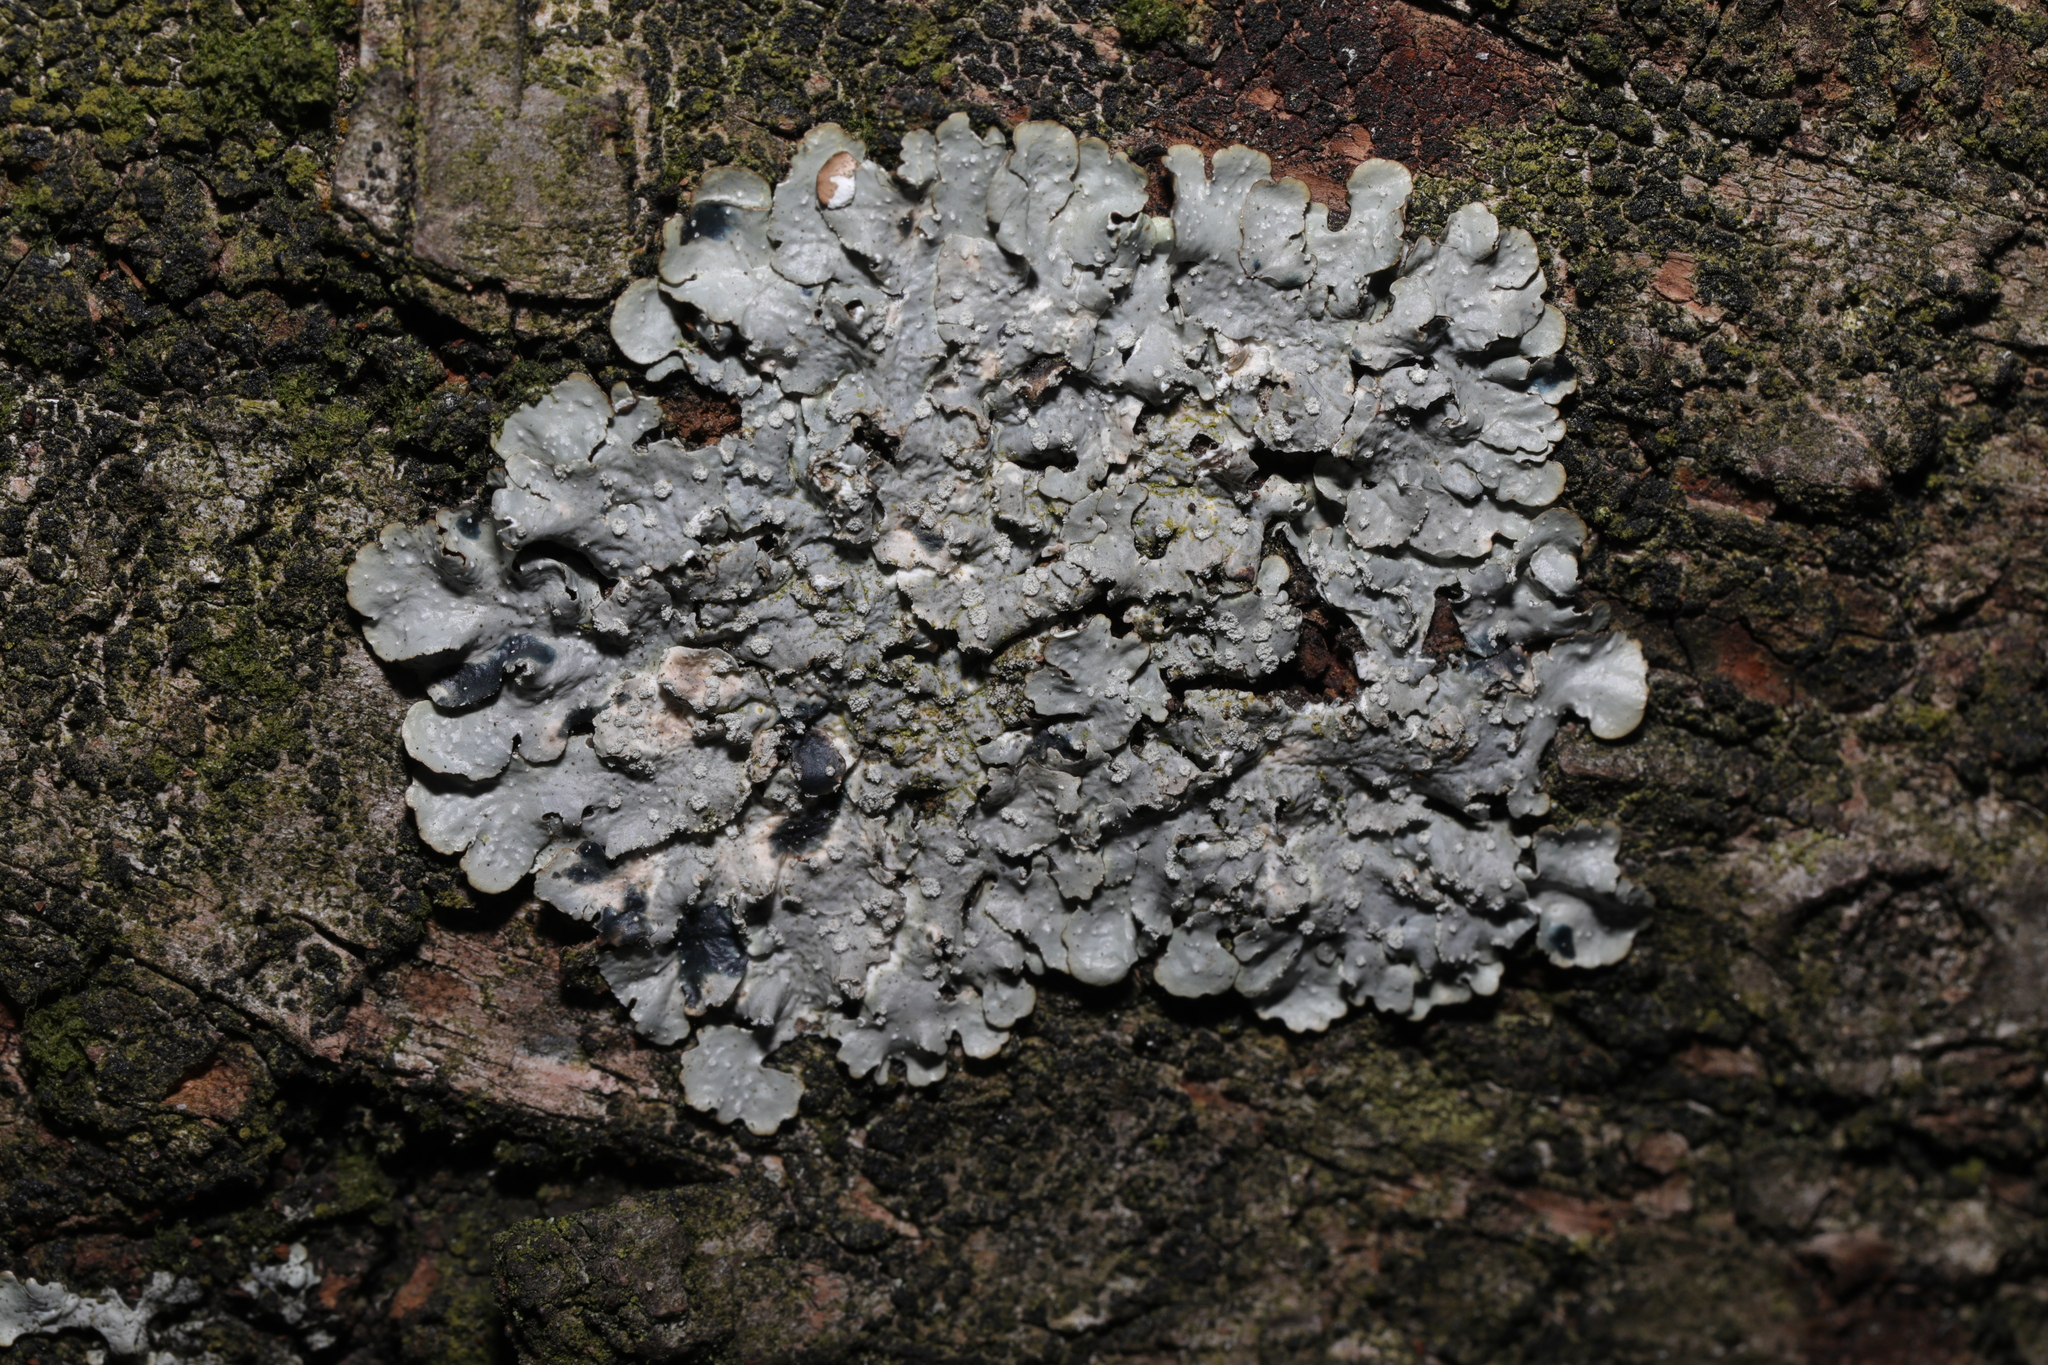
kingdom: Fungi
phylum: Ascomycota
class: Lecanoromycetes
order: Lecanorales
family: Parmeliaceae
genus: Punctelia
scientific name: Punctelia subrudecta
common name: Powdered speckled shield lichen
